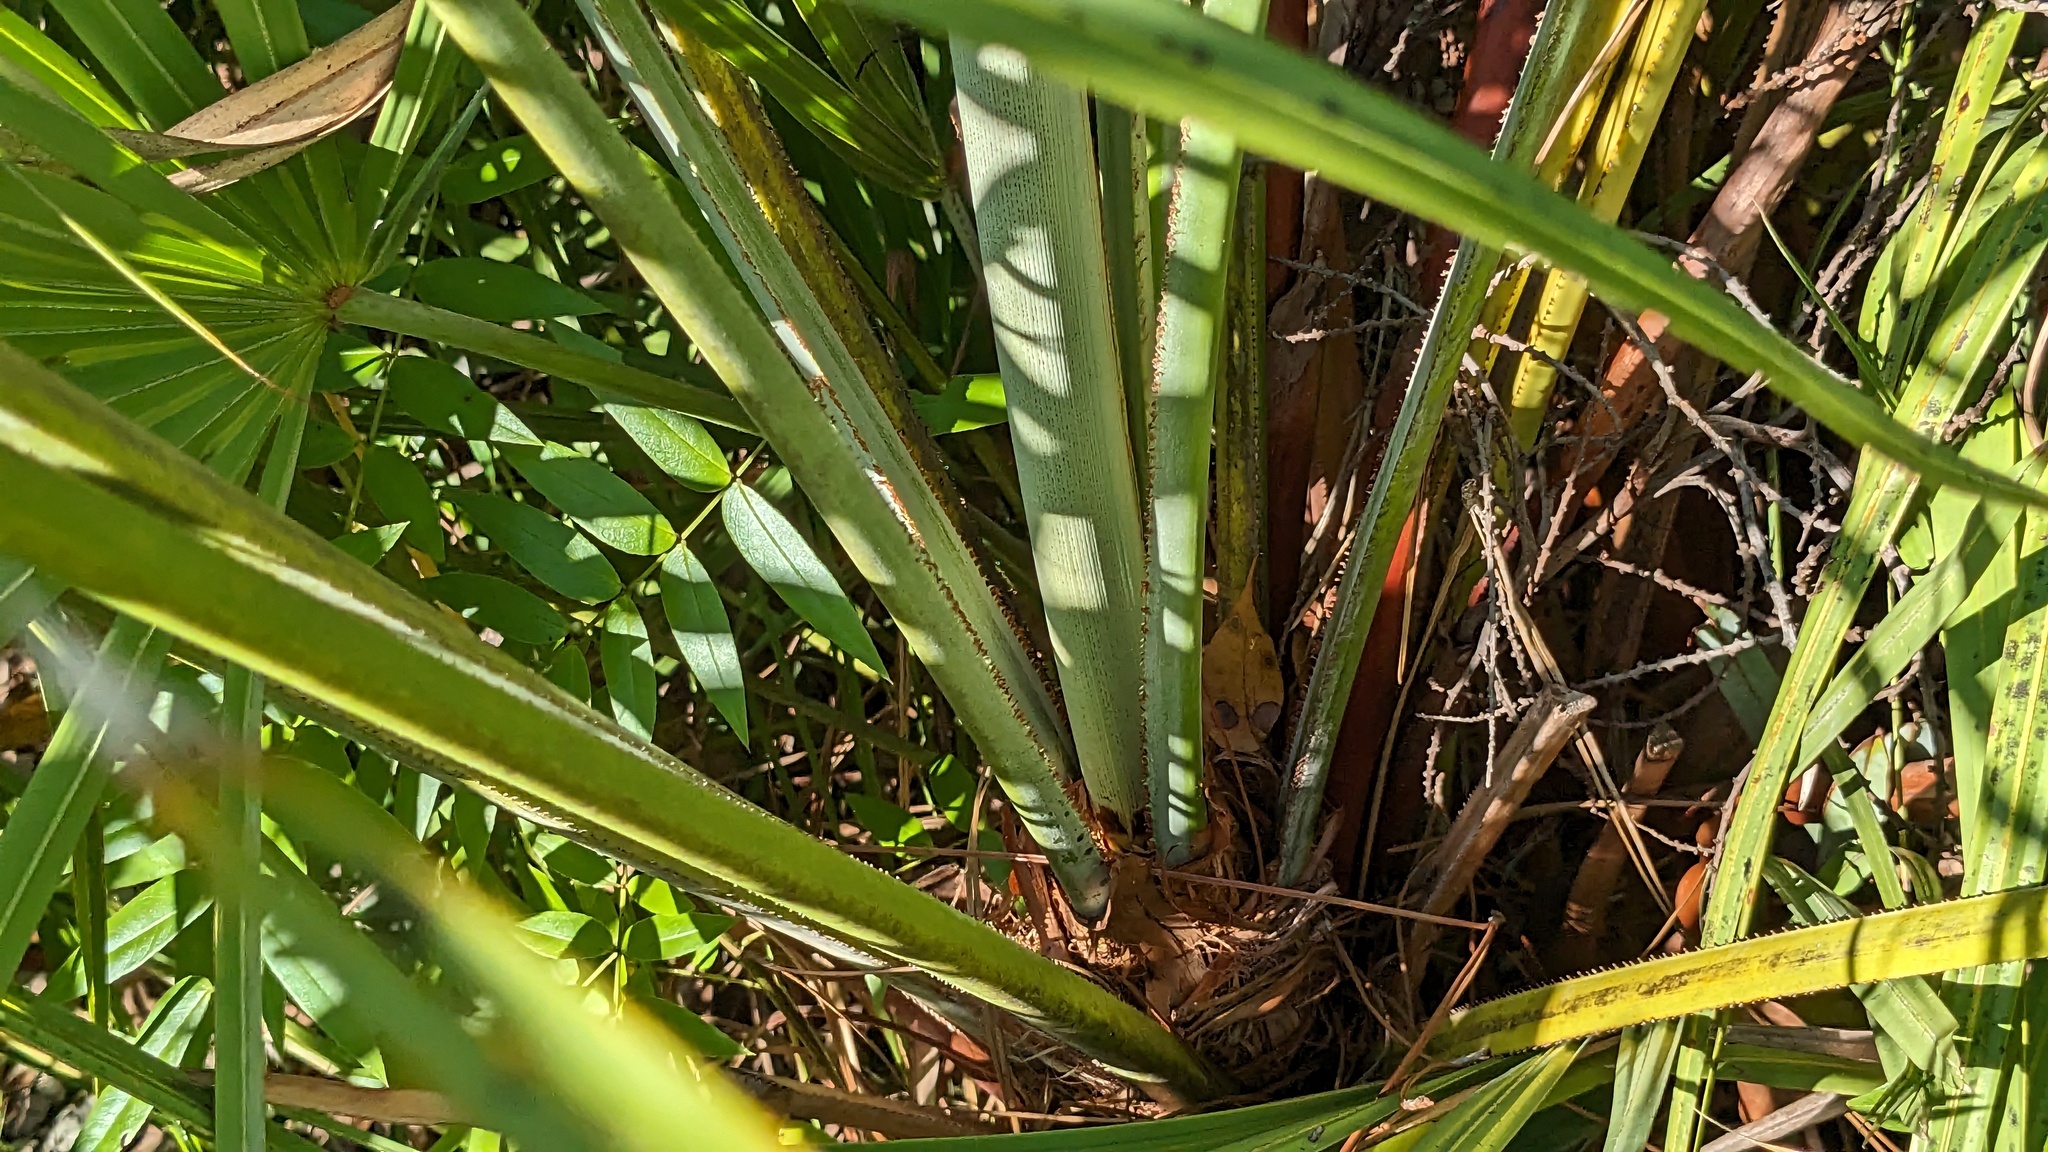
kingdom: Plantae
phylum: Tracheophyta
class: Liliopsida
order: Arecales
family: Arecaceae
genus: Serenoa
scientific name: Serenoa repens
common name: Saw-palmetto
